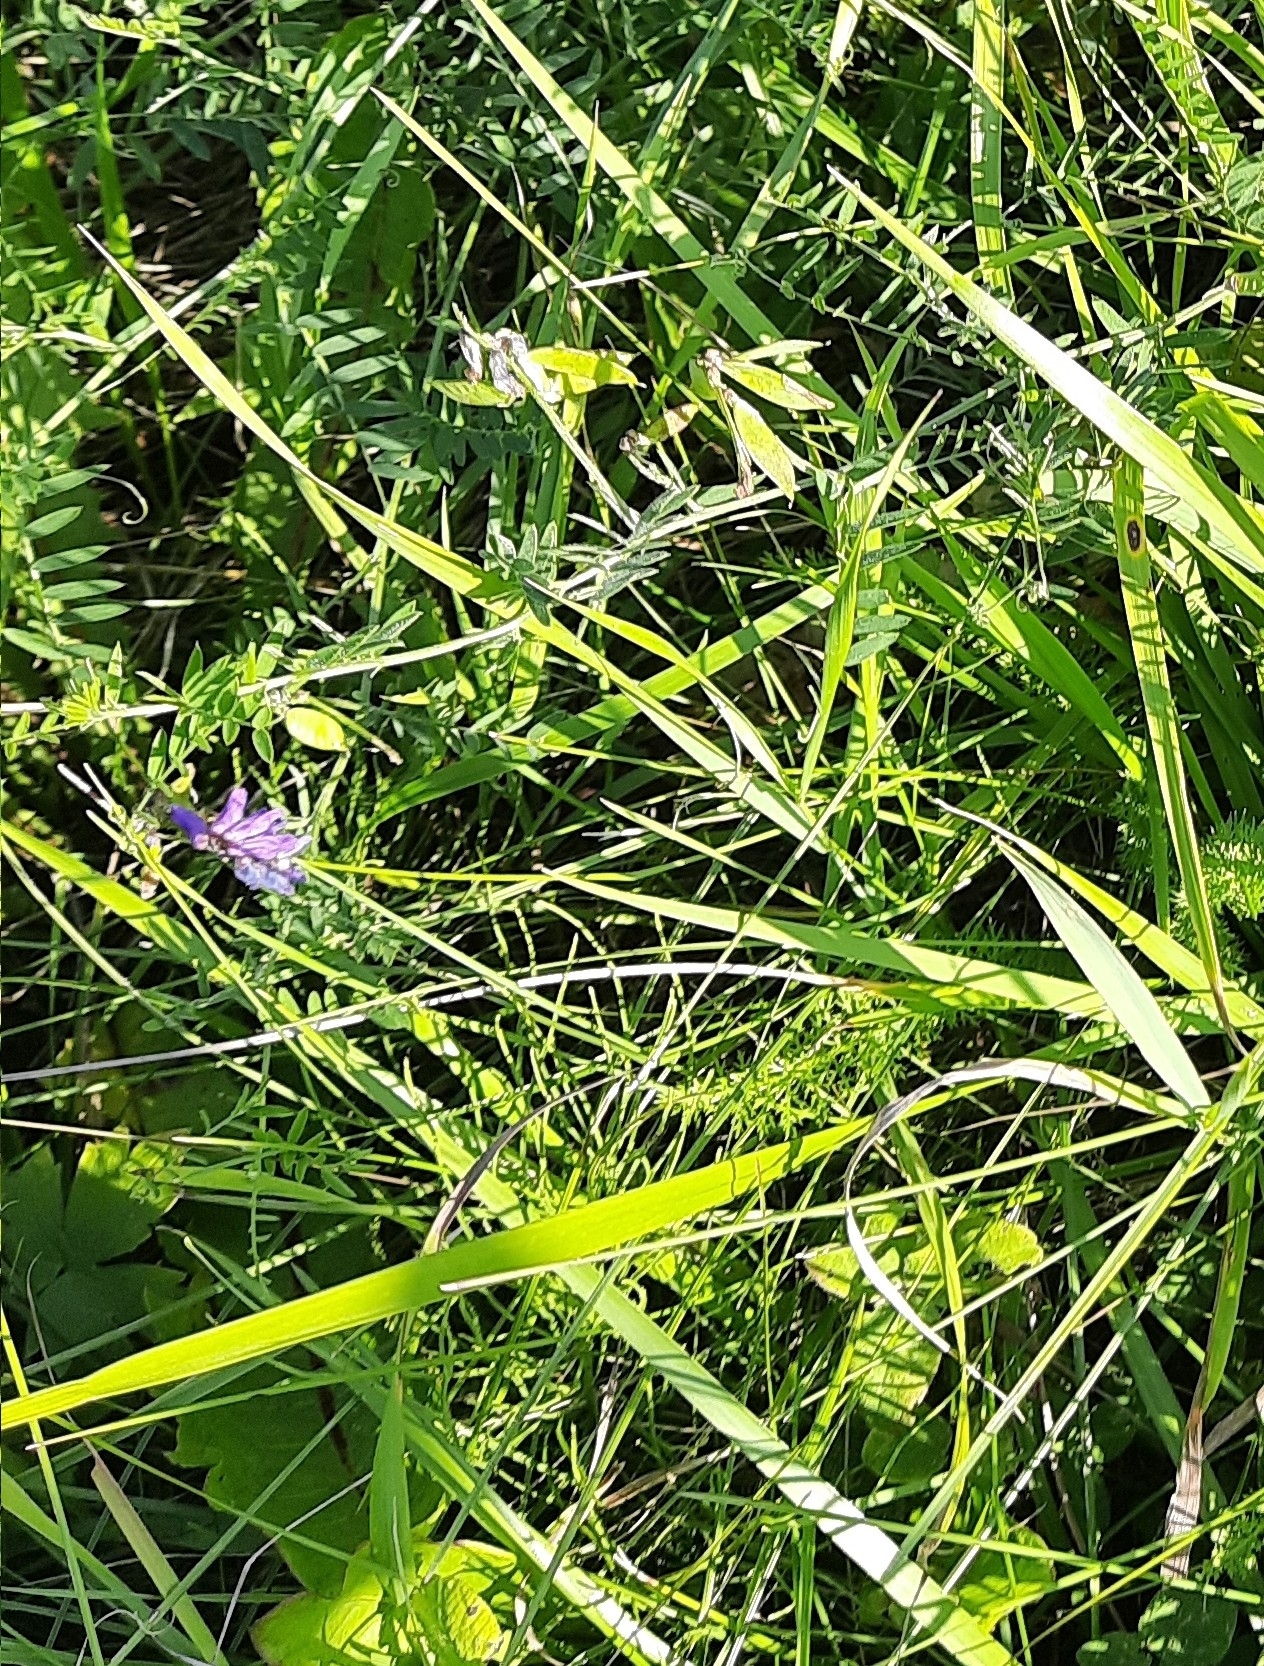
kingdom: Plantae
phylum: Tracheophyta
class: Magnoliopsida
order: Fabales
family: Fabaceae
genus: Vicia
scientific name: Vicia cracca
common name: Bird vetch
